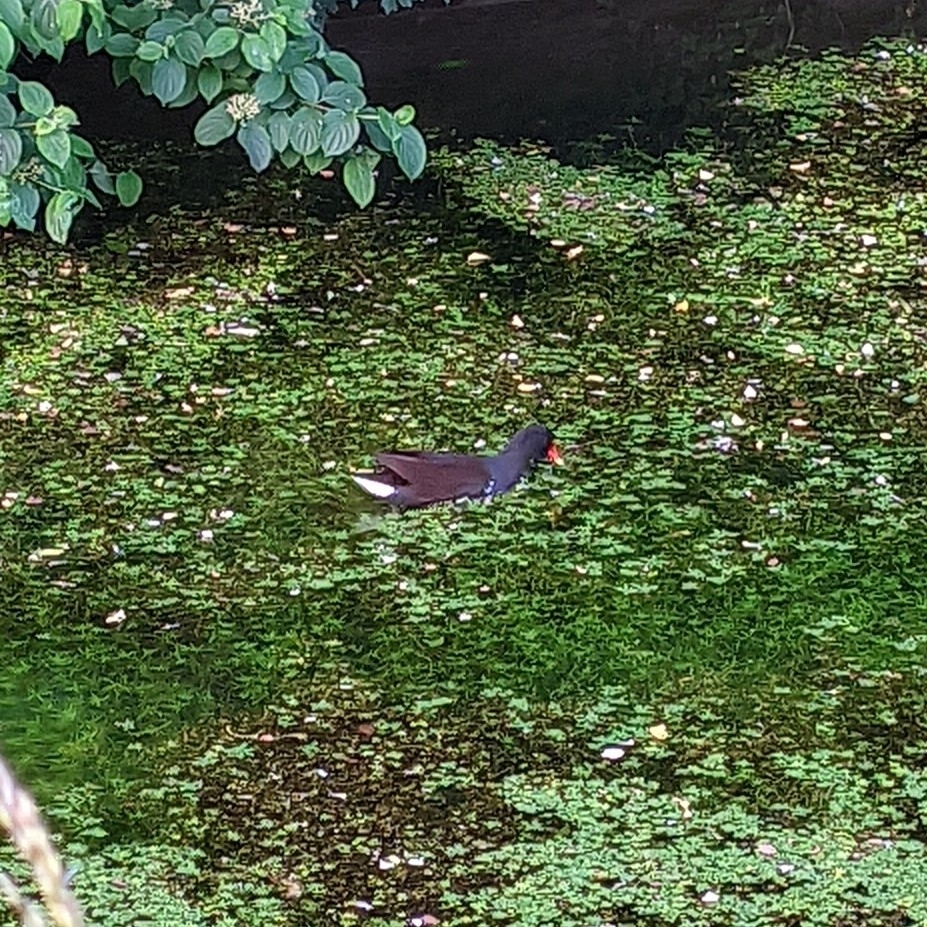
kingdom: Animalia
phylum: Chordata
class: Aves
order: Gruiformes
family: Rallidae
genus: Gallinula
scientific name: Gallinula chloropus
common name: Common moorhen
